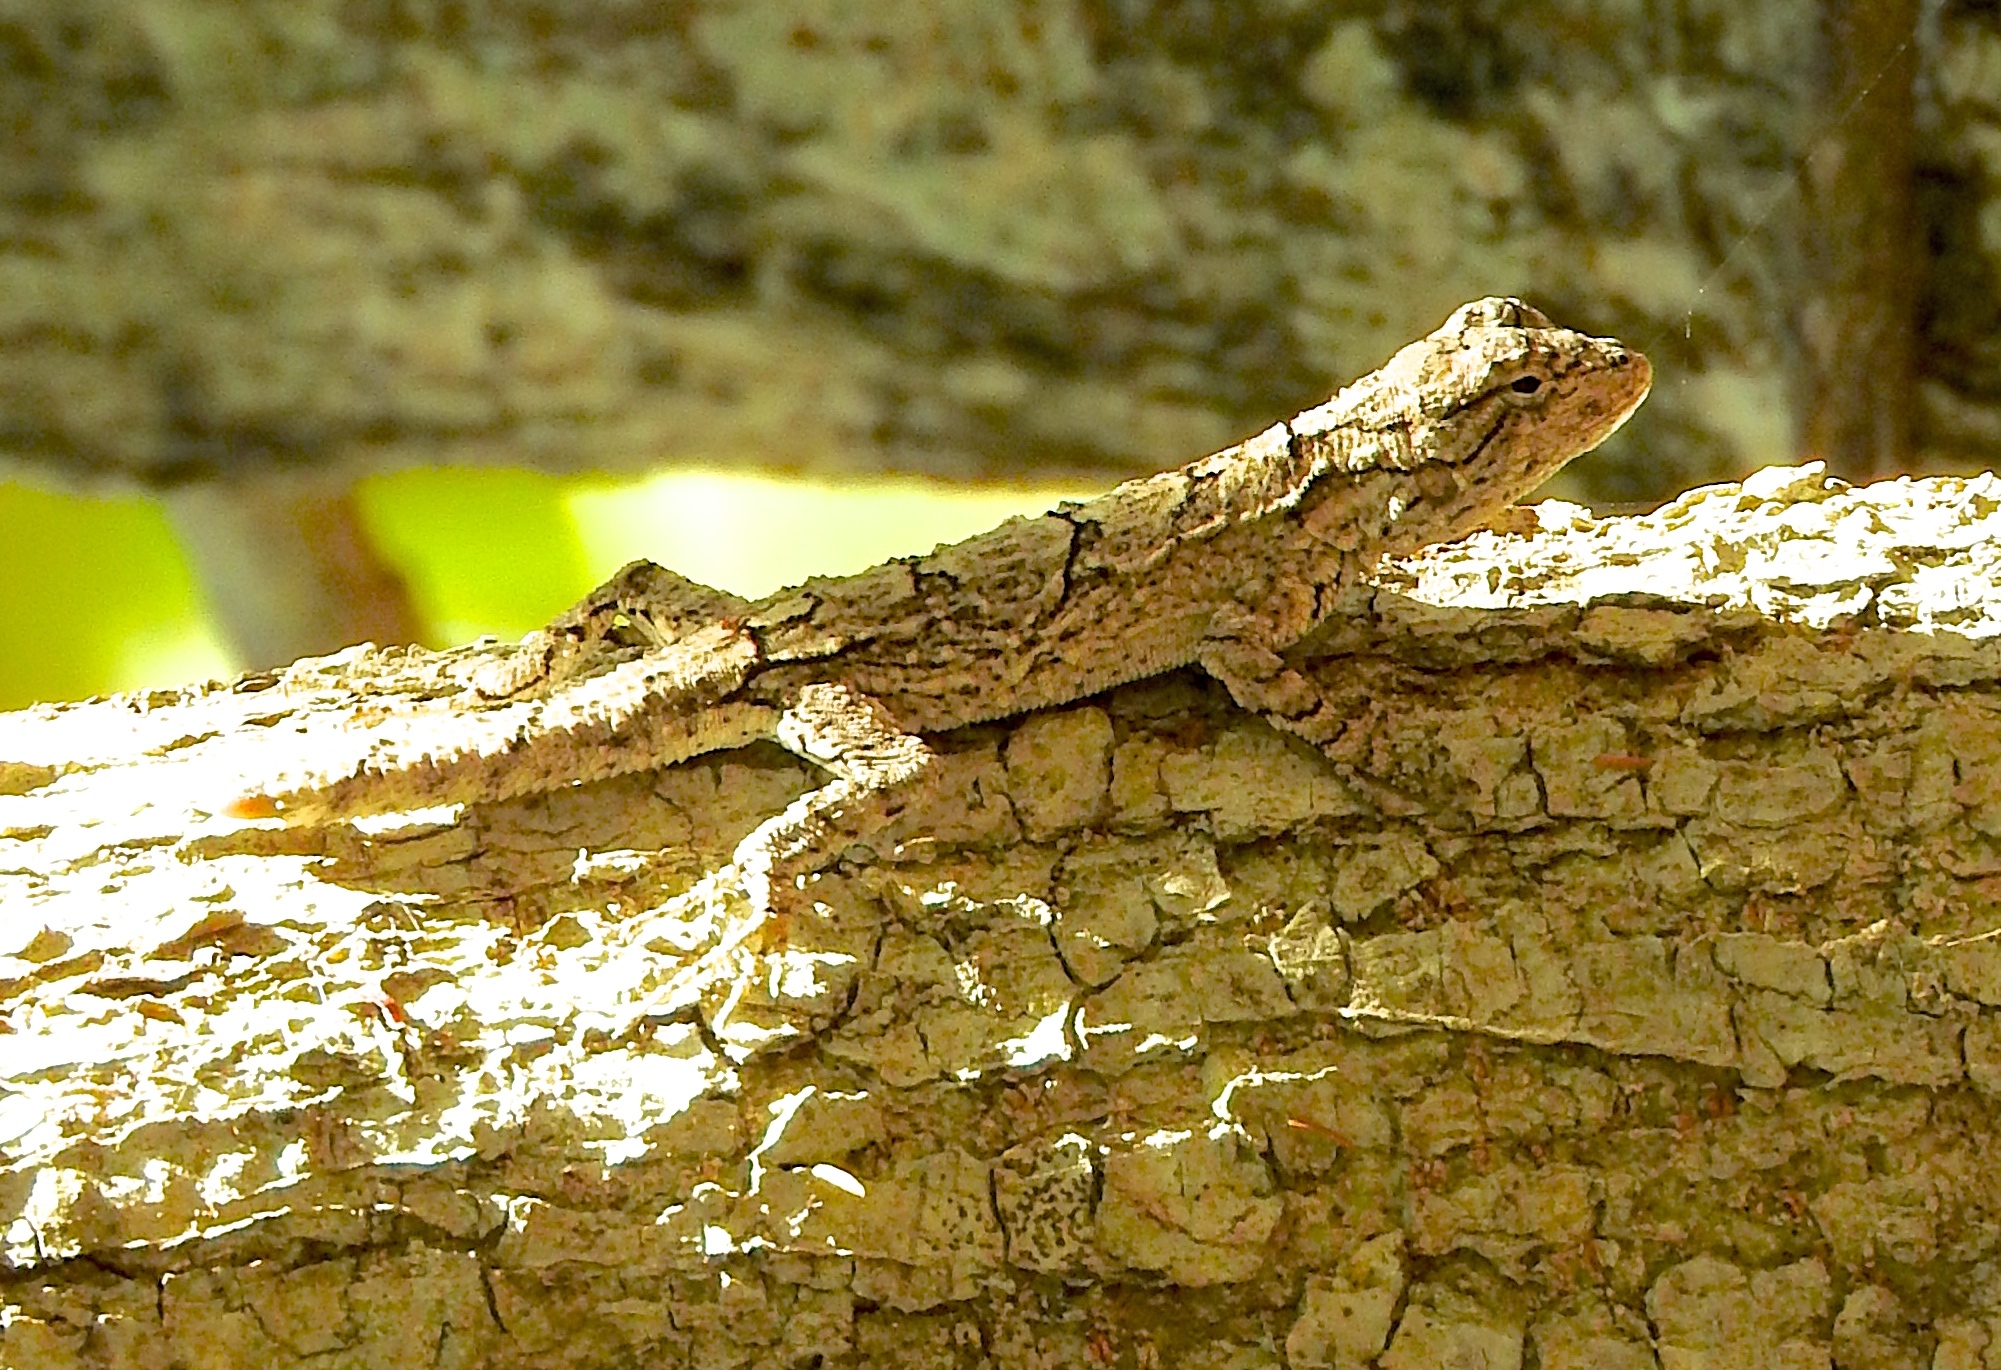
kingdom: Animalia
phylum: Chordata
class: Squamata
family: Phrynosomatidae
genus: Urosaurus
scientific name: Urosaurus bicarinatus
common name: Tropical tree lizard
